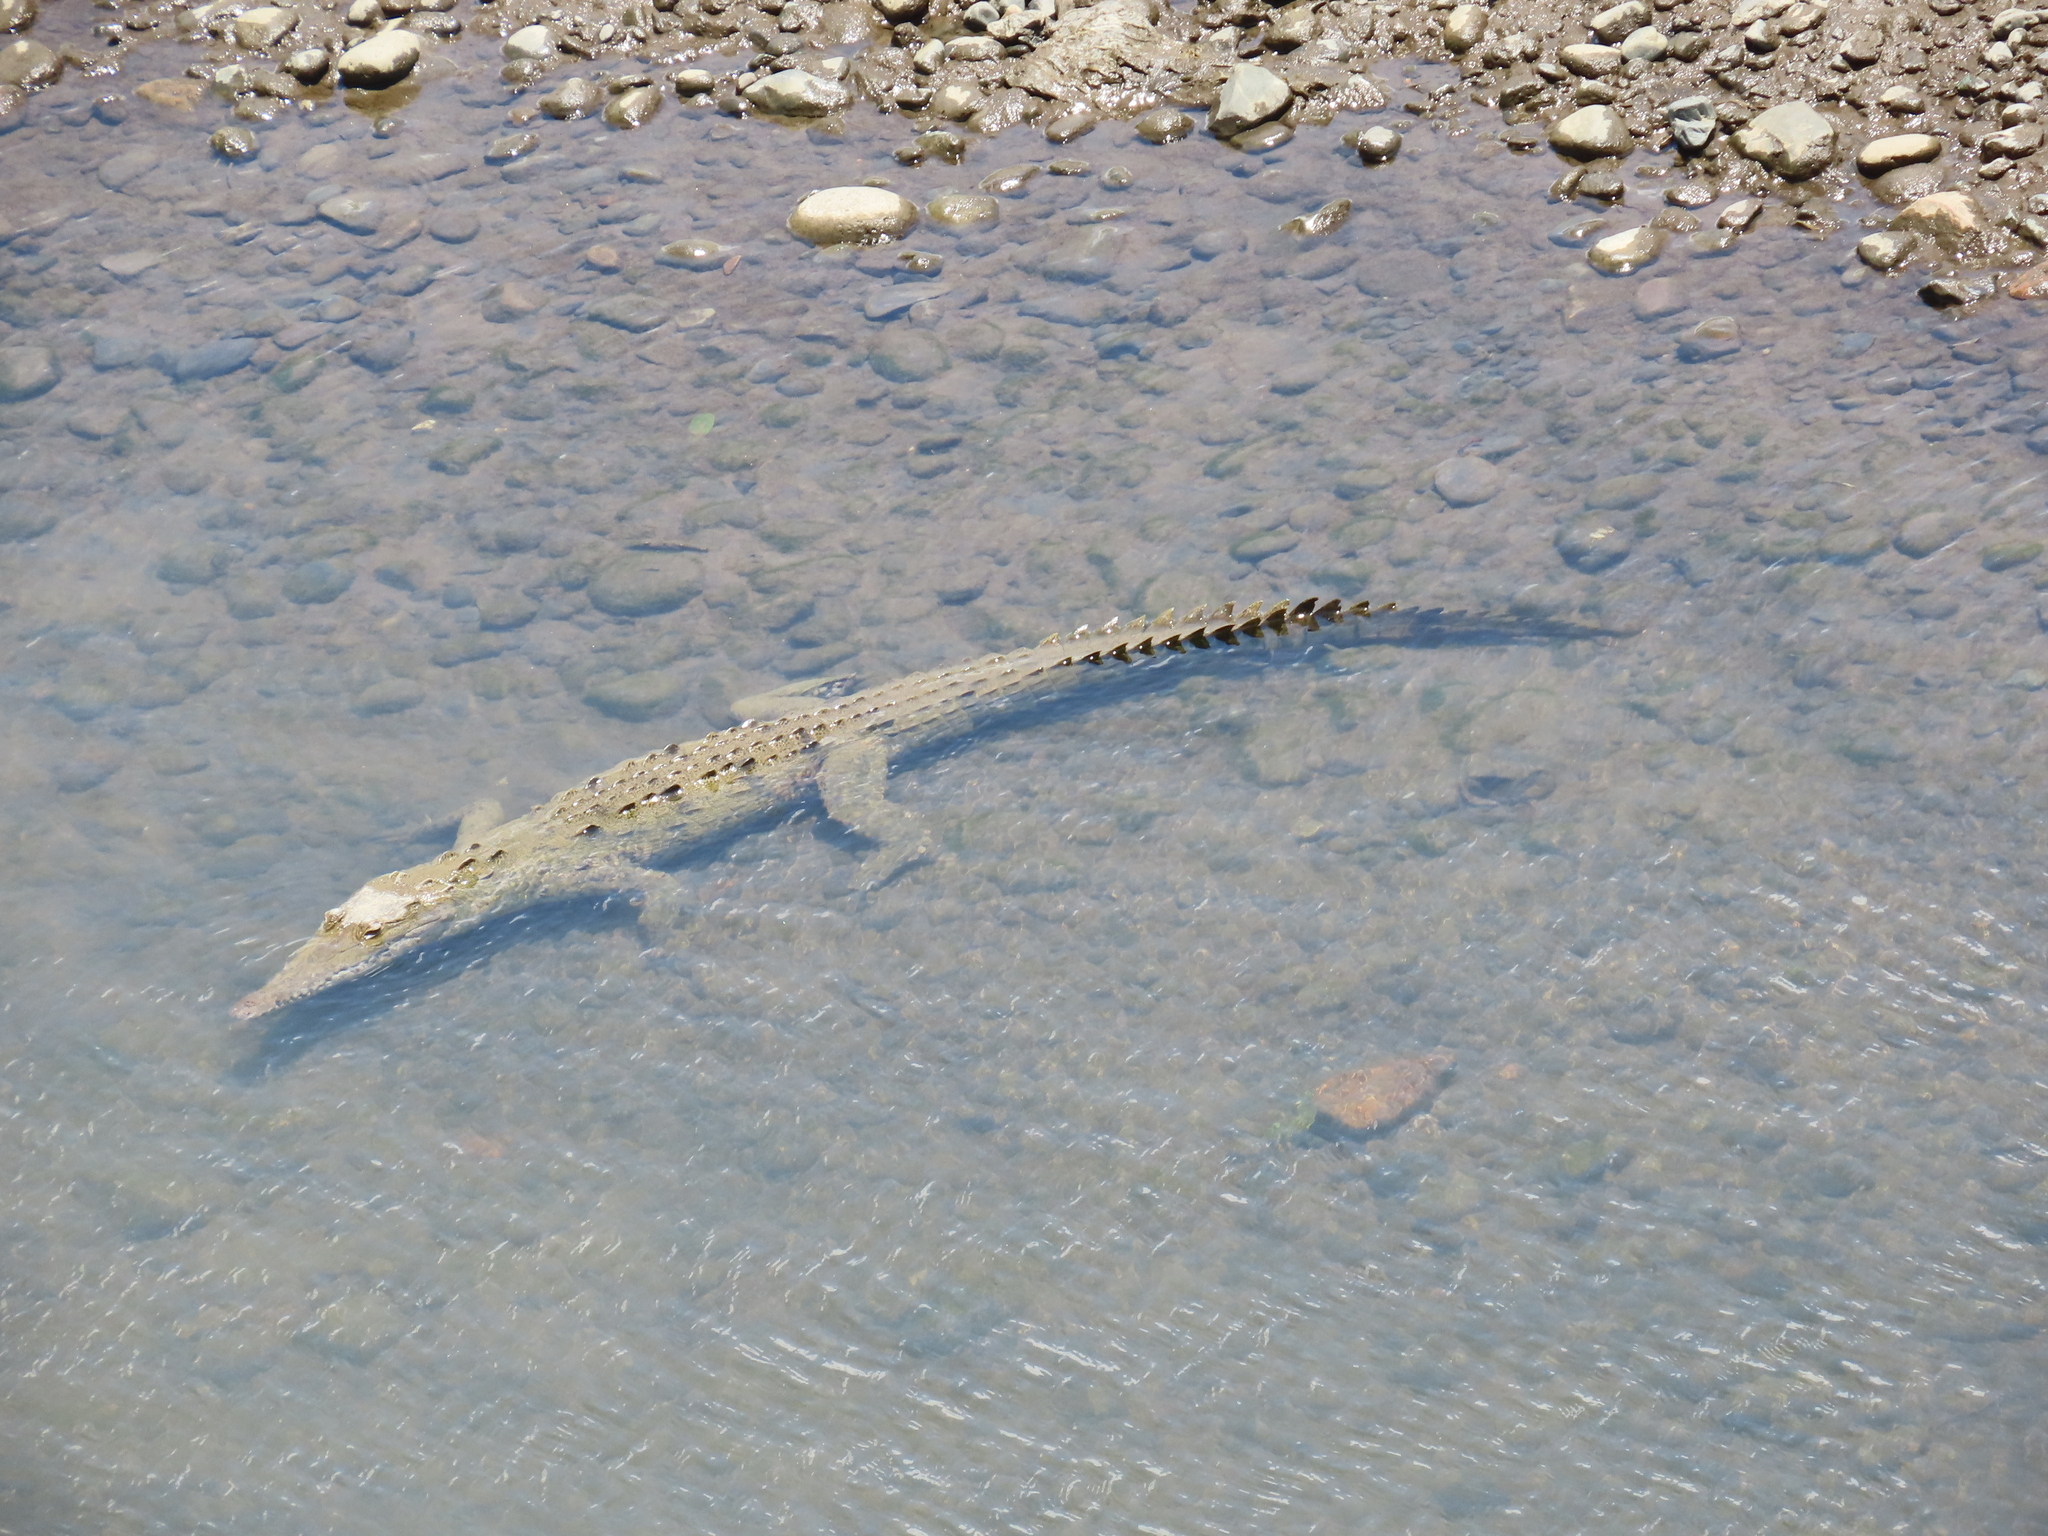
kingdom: Animalia
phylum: Chordata
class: Crocodylia
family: Crocodylidae
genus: Crocodylus
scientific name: Crocodylus acutus
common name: American crocodile
